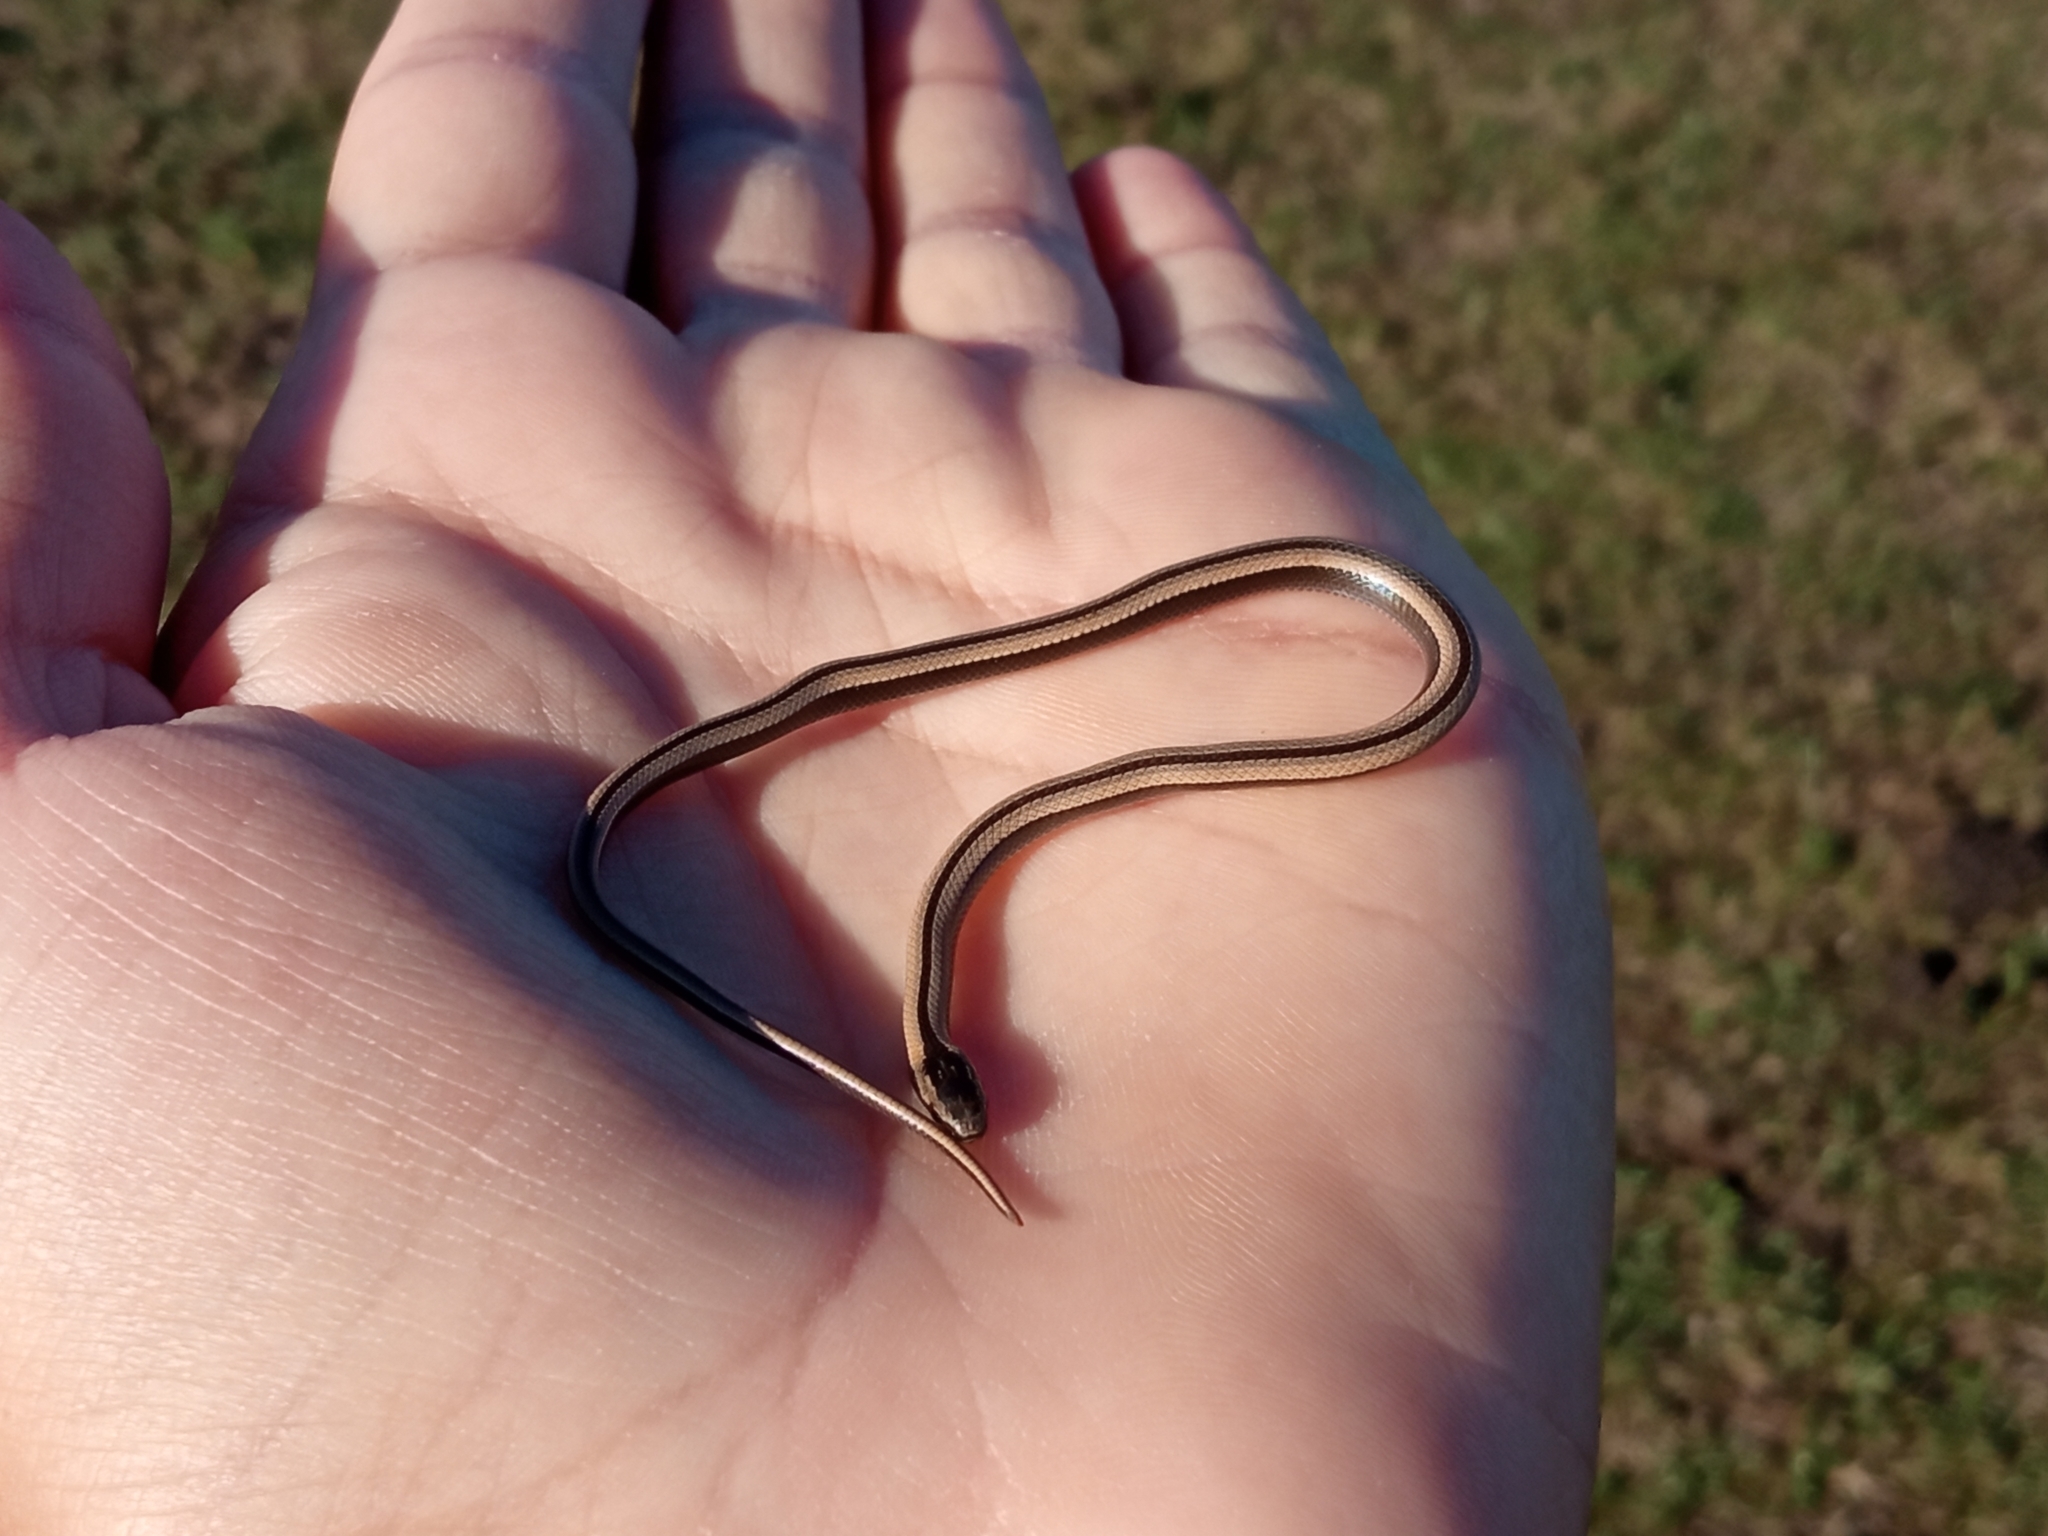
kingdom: Animalia
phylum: Chordata
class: Squamata
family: Colubridae
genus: Psomophis
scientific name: Psomophis obtusus
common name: Wide ground snake
